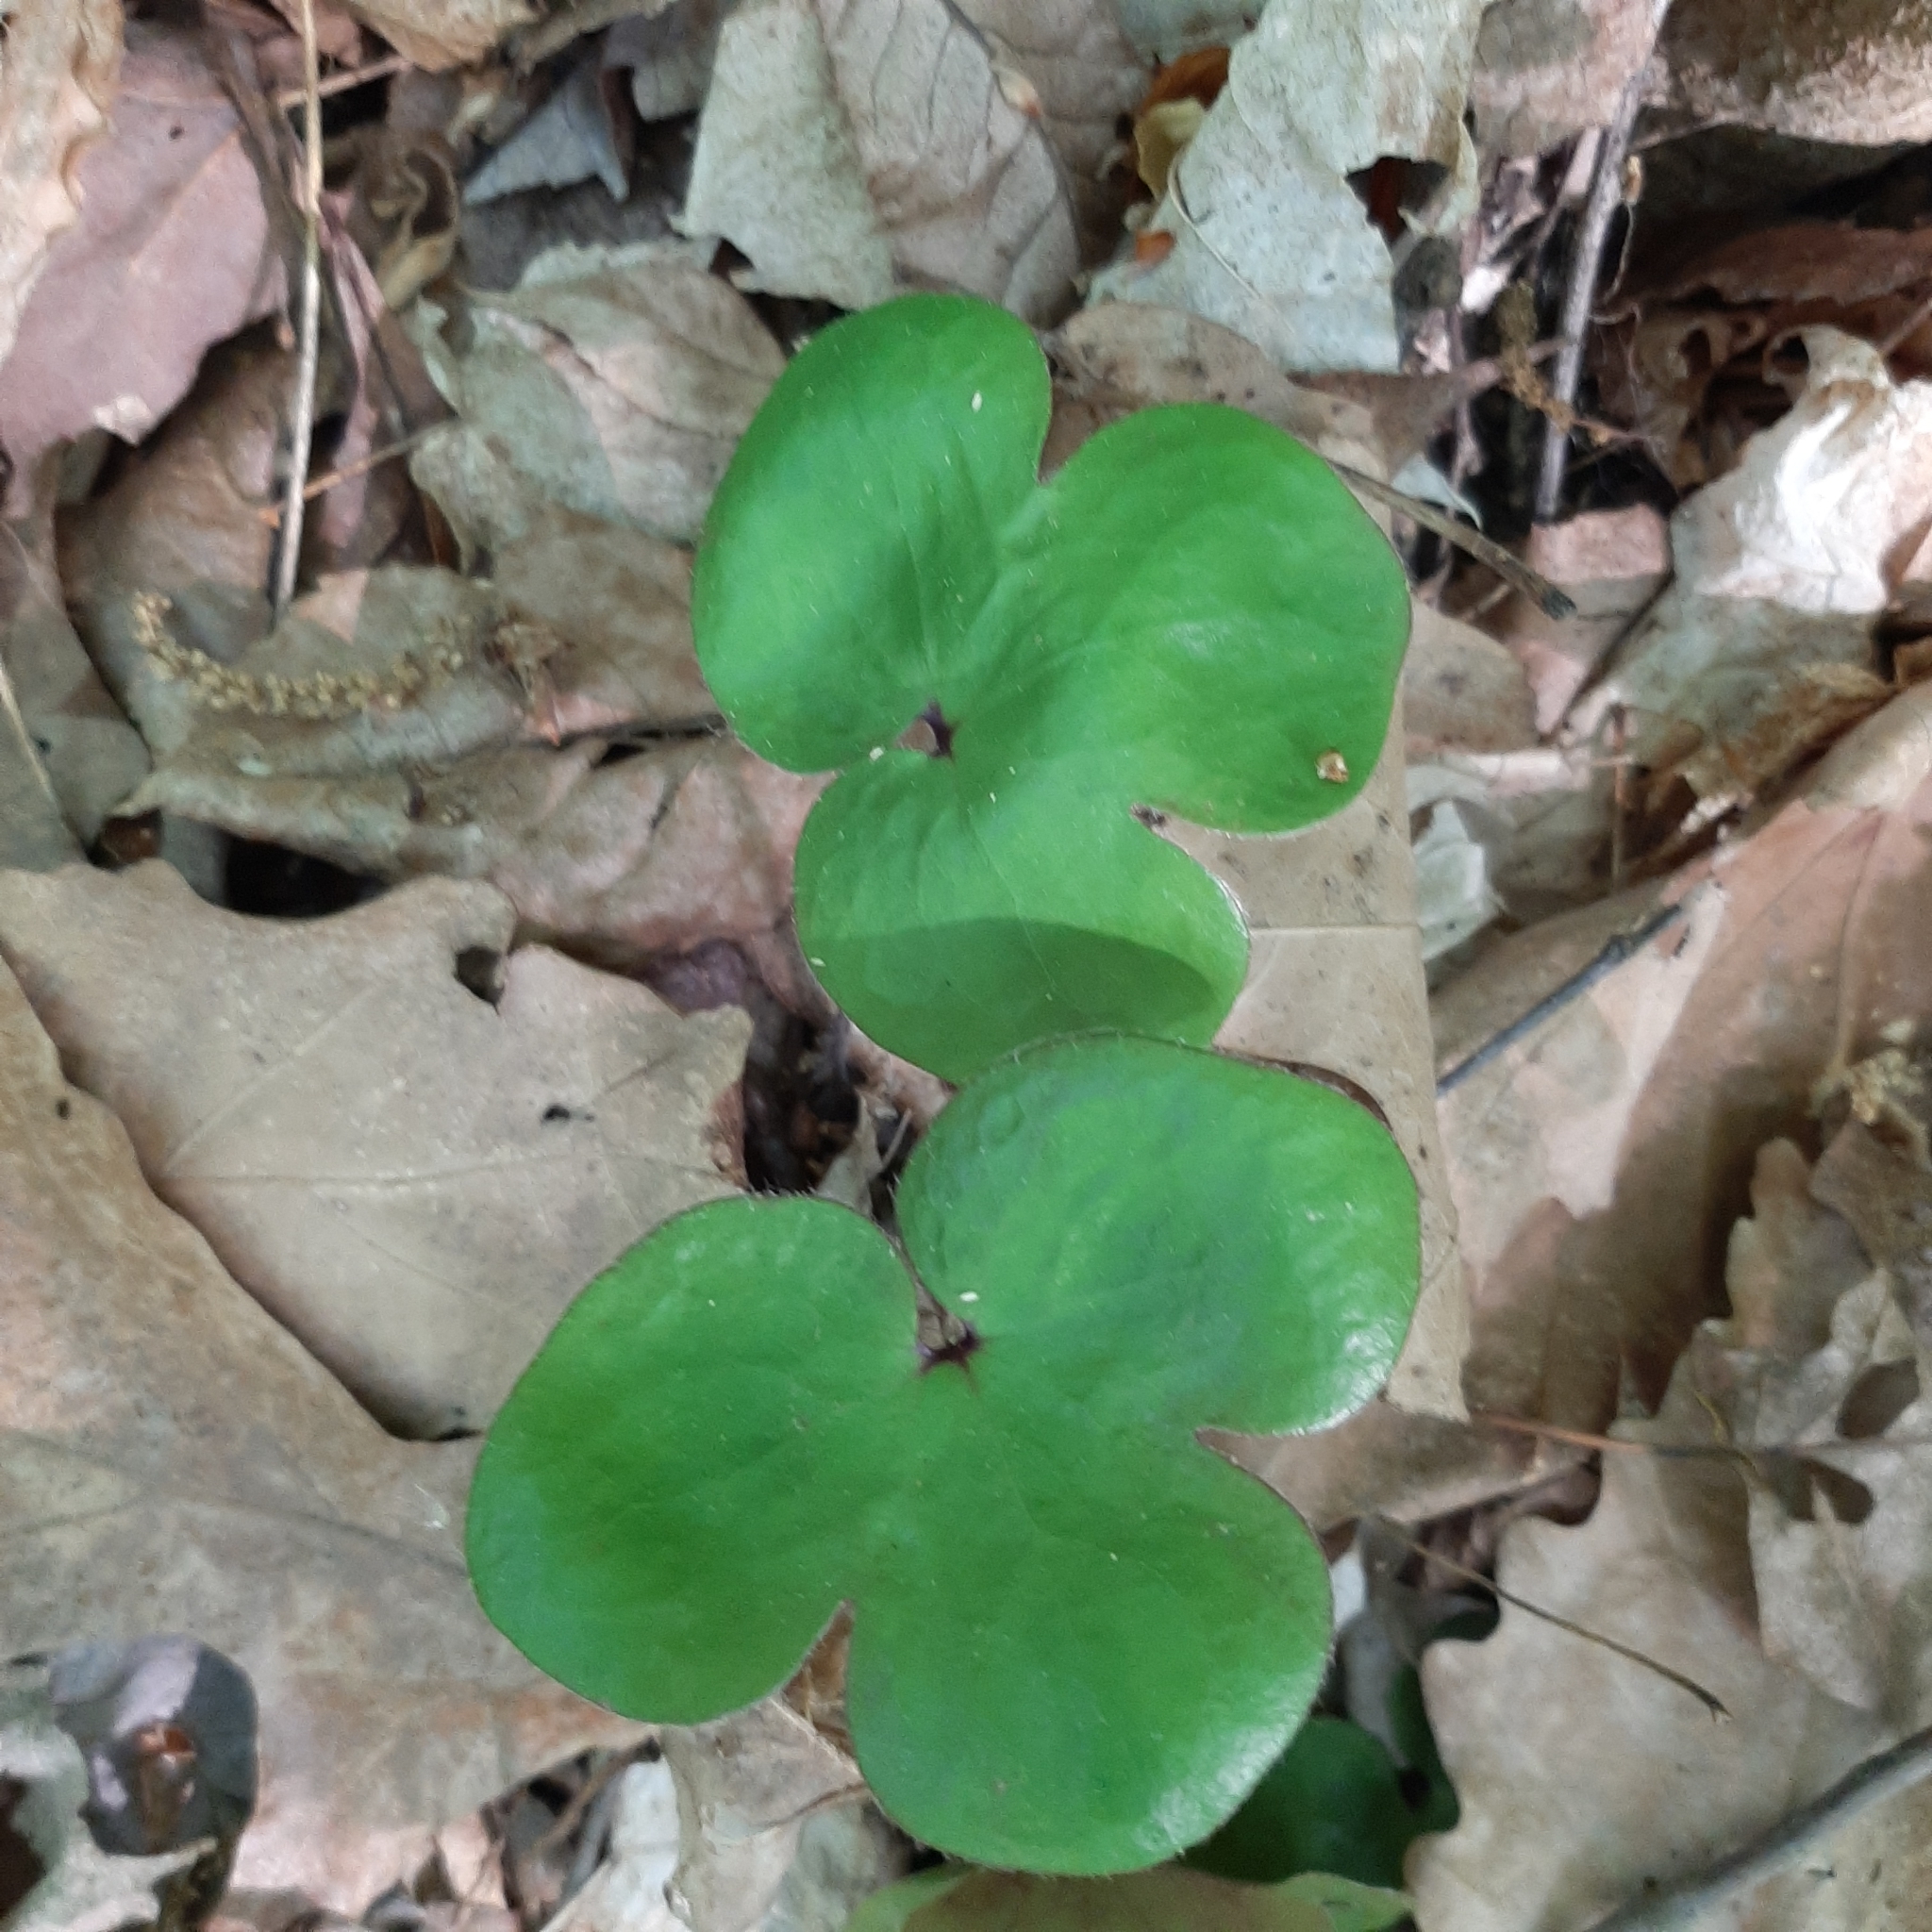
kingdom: Plantae
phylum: Tracheophyta
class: Magnoliopsida
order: Ranunculales
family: Ranunculaceae
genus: Hepatica
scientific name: Hepatica americana
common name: American hepatica
